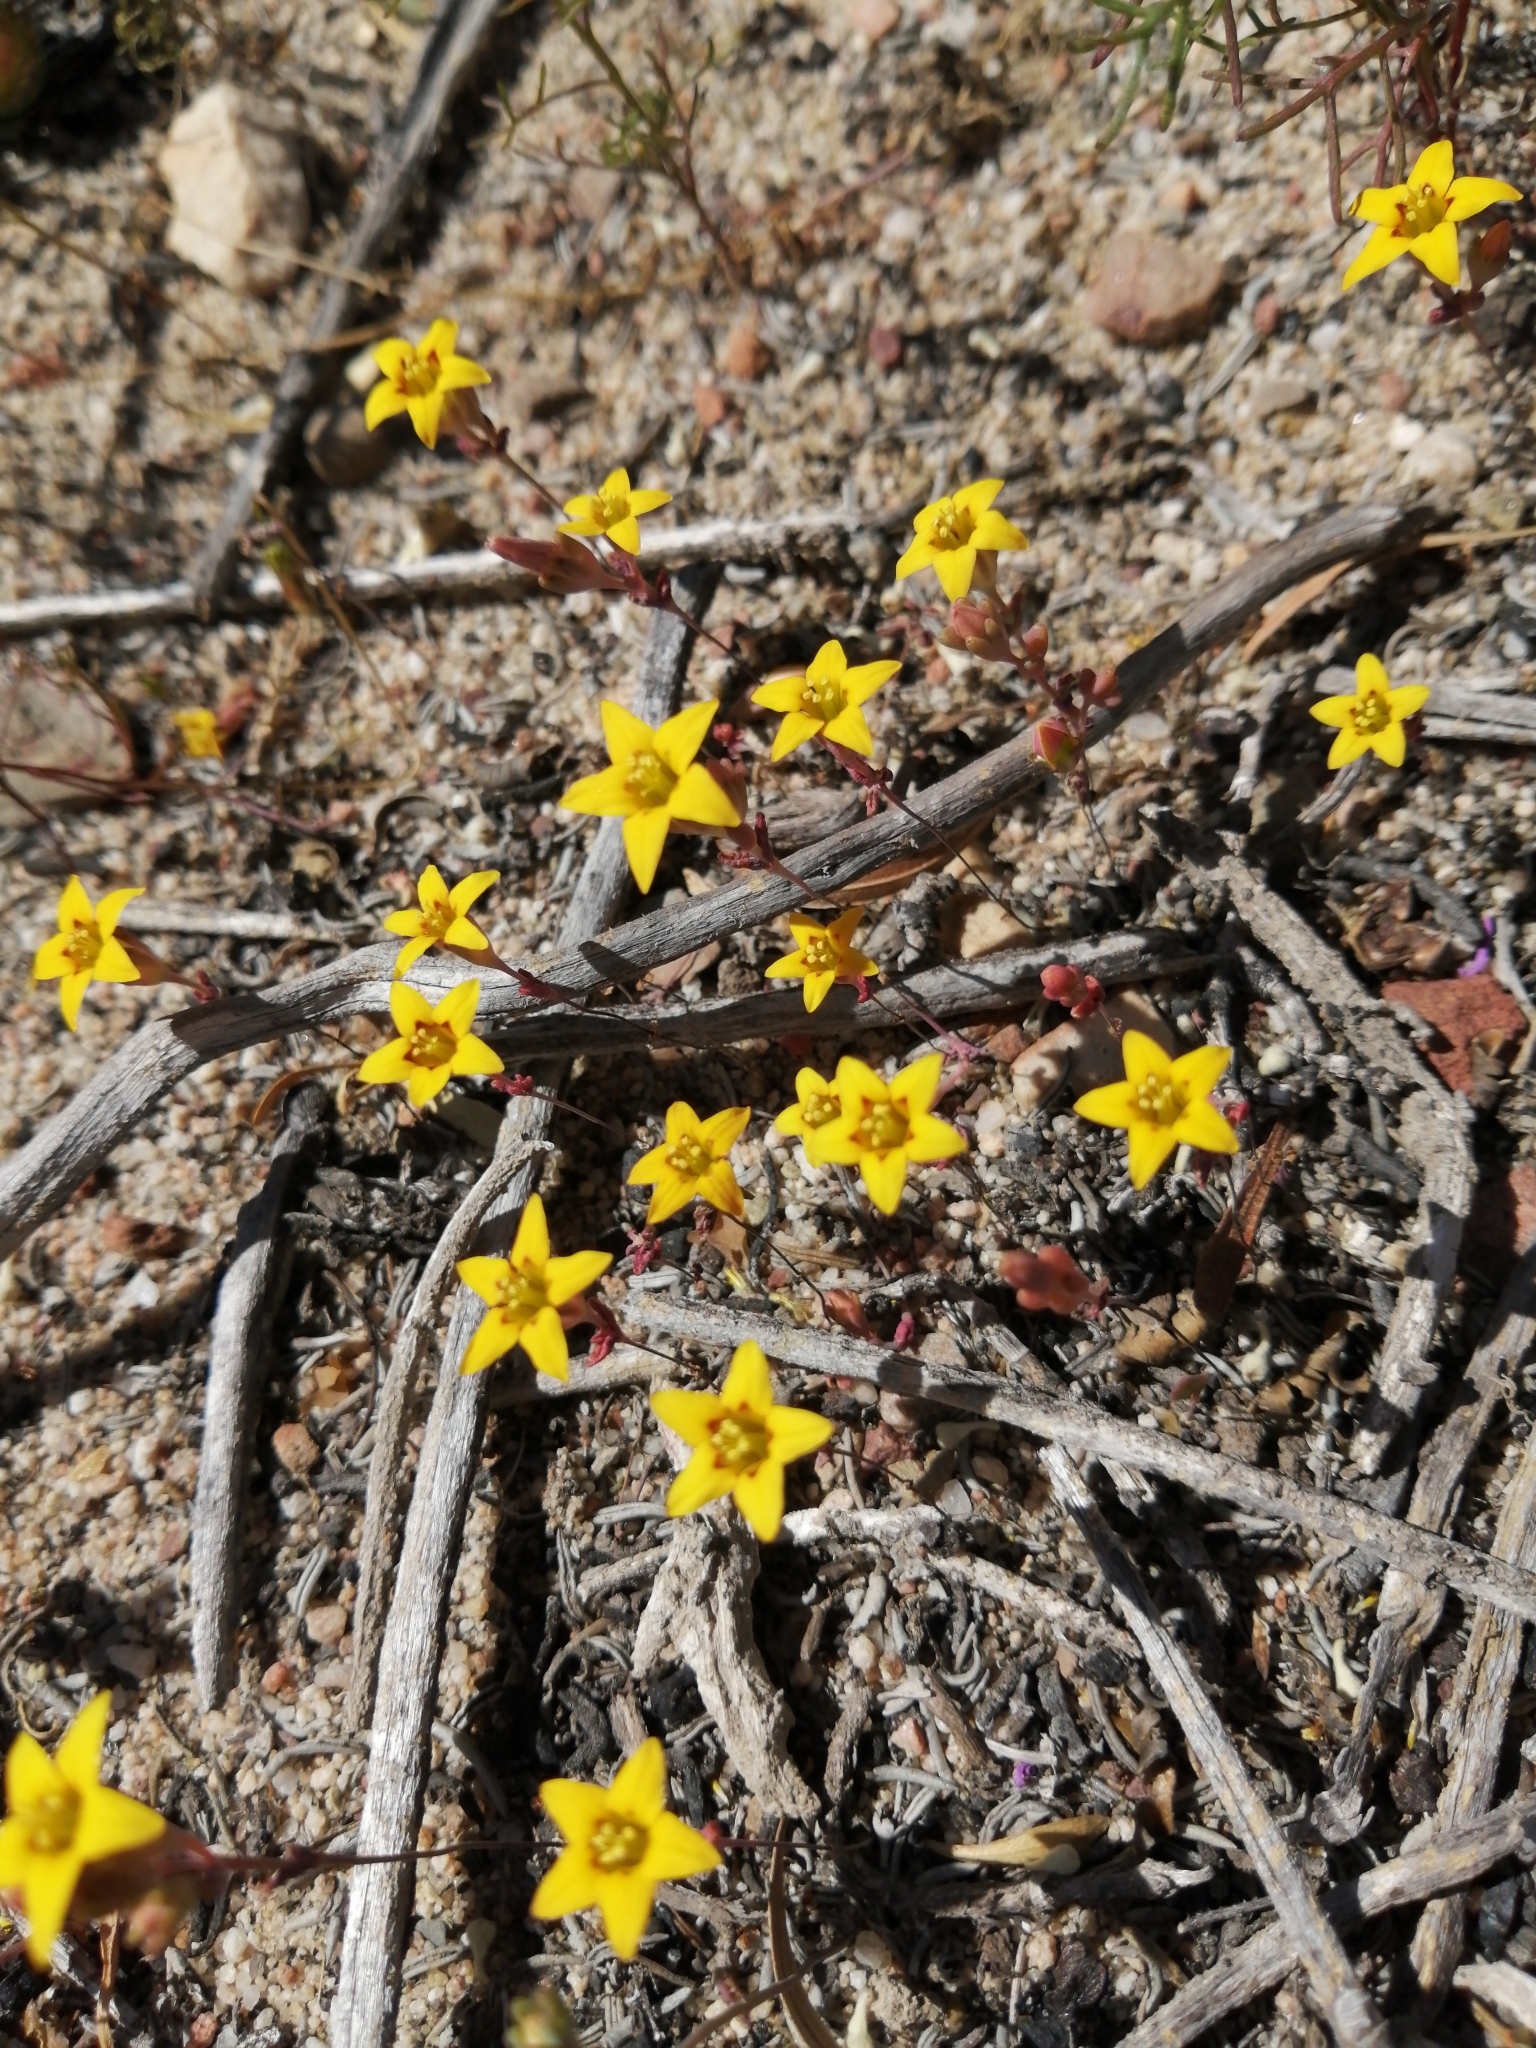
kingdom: Plantae
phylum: Tracheophyta
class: Magnoliopsida
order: Saxifragales
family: Crassulaceae
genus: Crassula
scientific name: Crassula dichotoma
